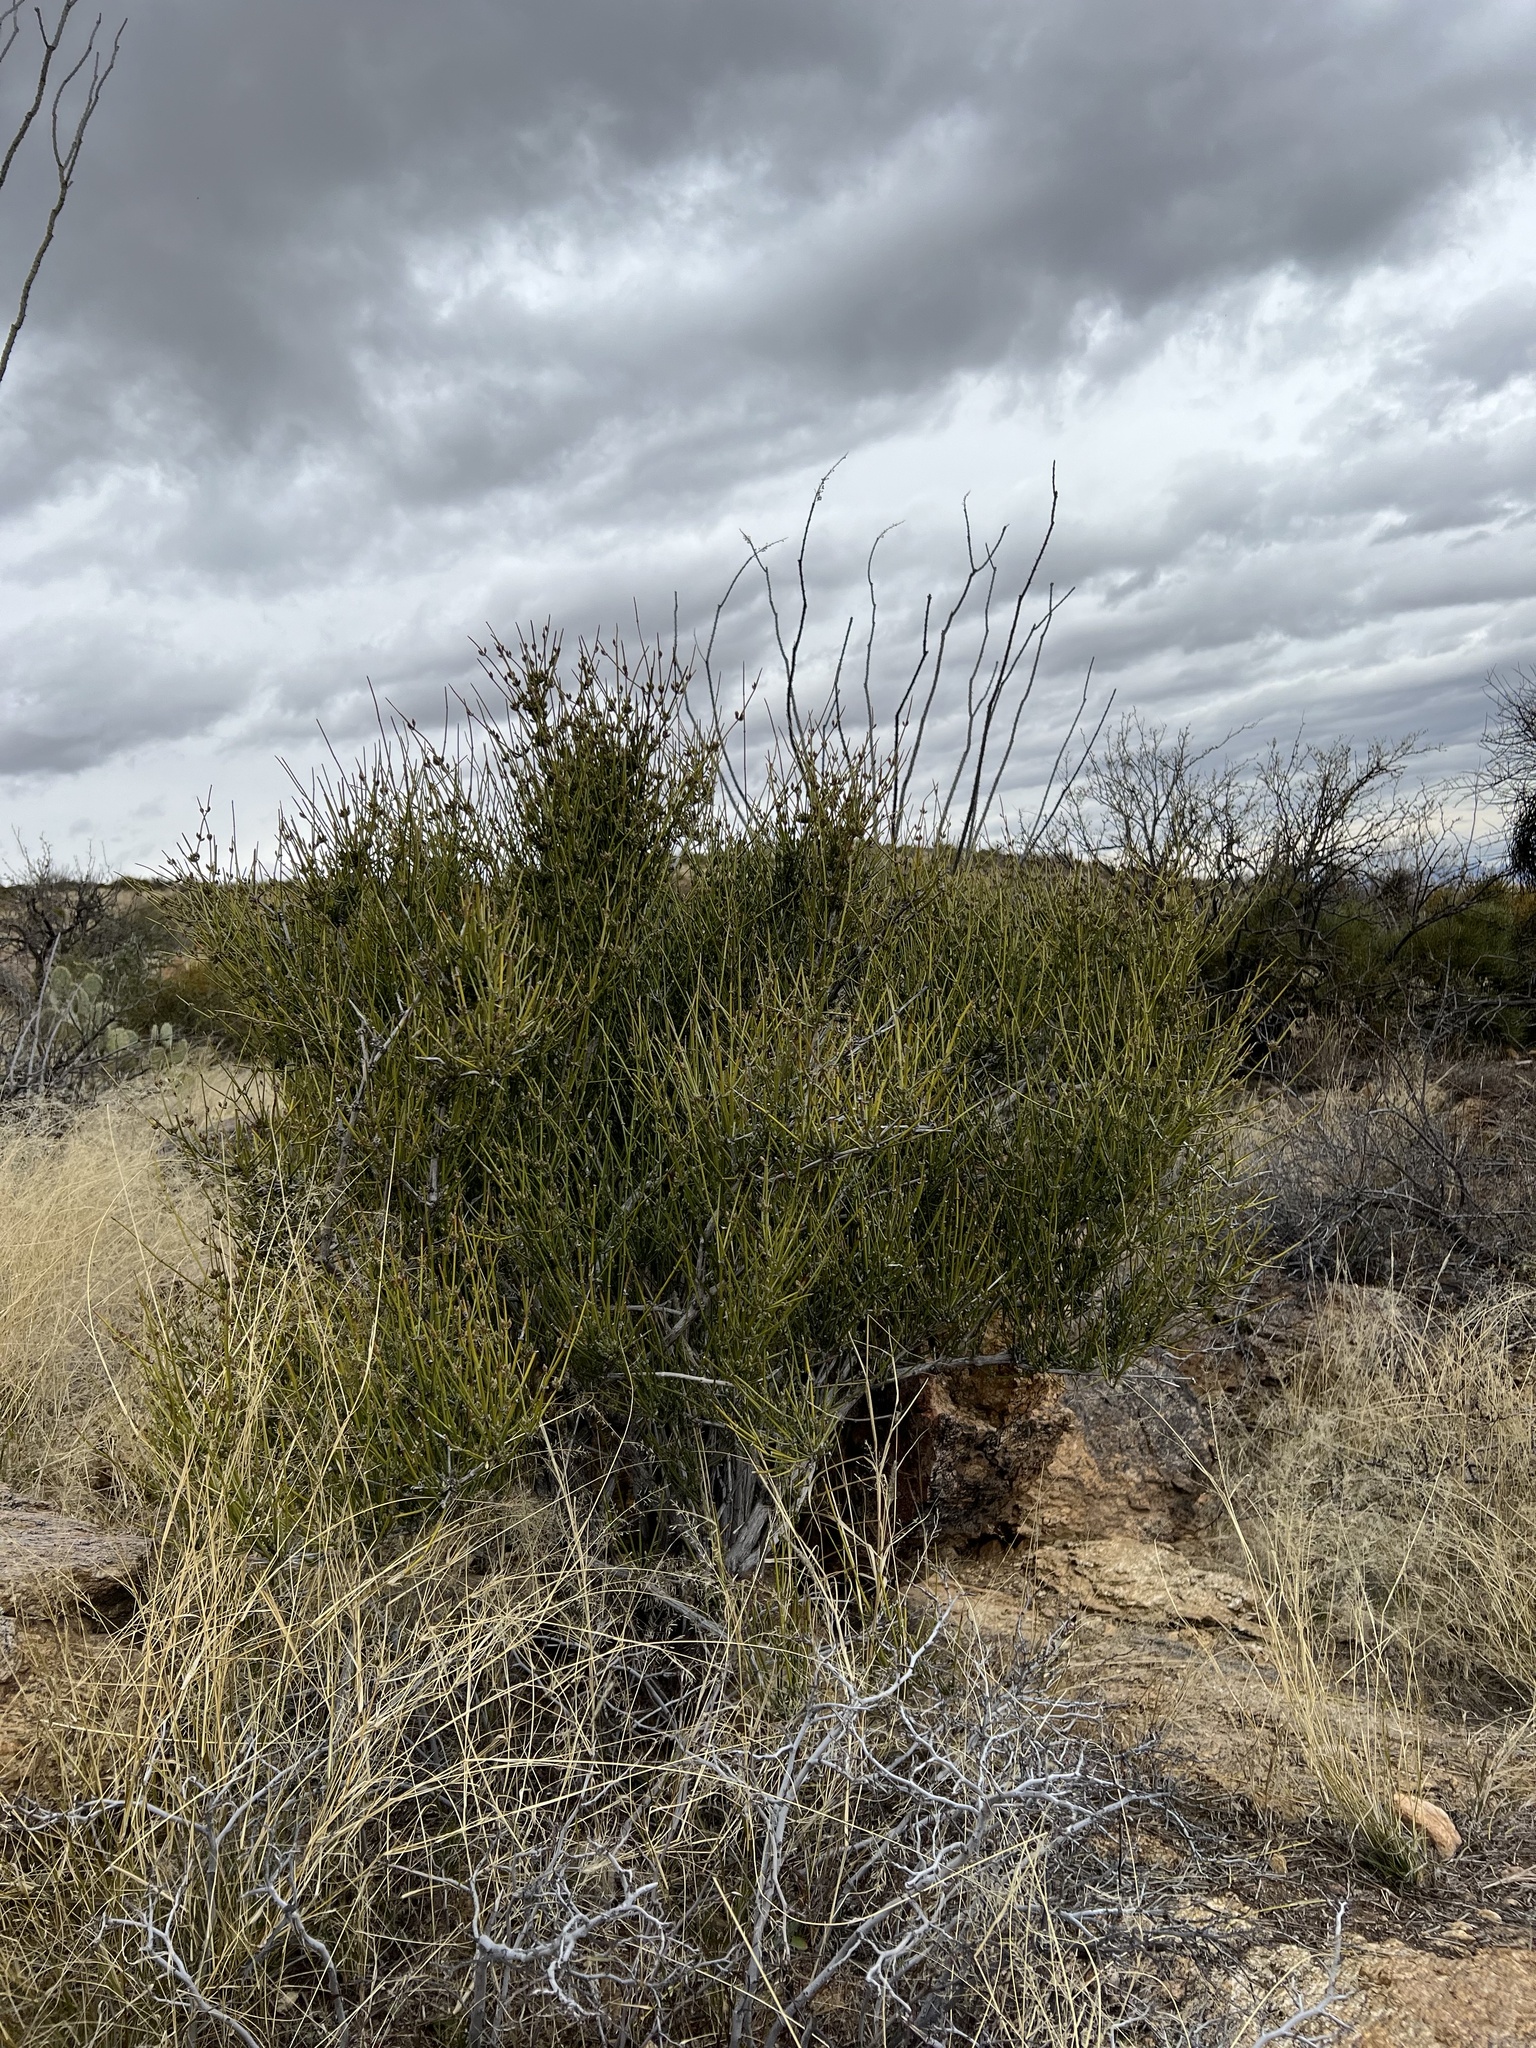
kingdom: Plantae
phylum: Tracheophyta
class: Gnetopsida
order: Ephedrales
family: Ephedraceae
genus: Ephedra
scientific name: Ephedra aspera
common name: Boundary ephedra
